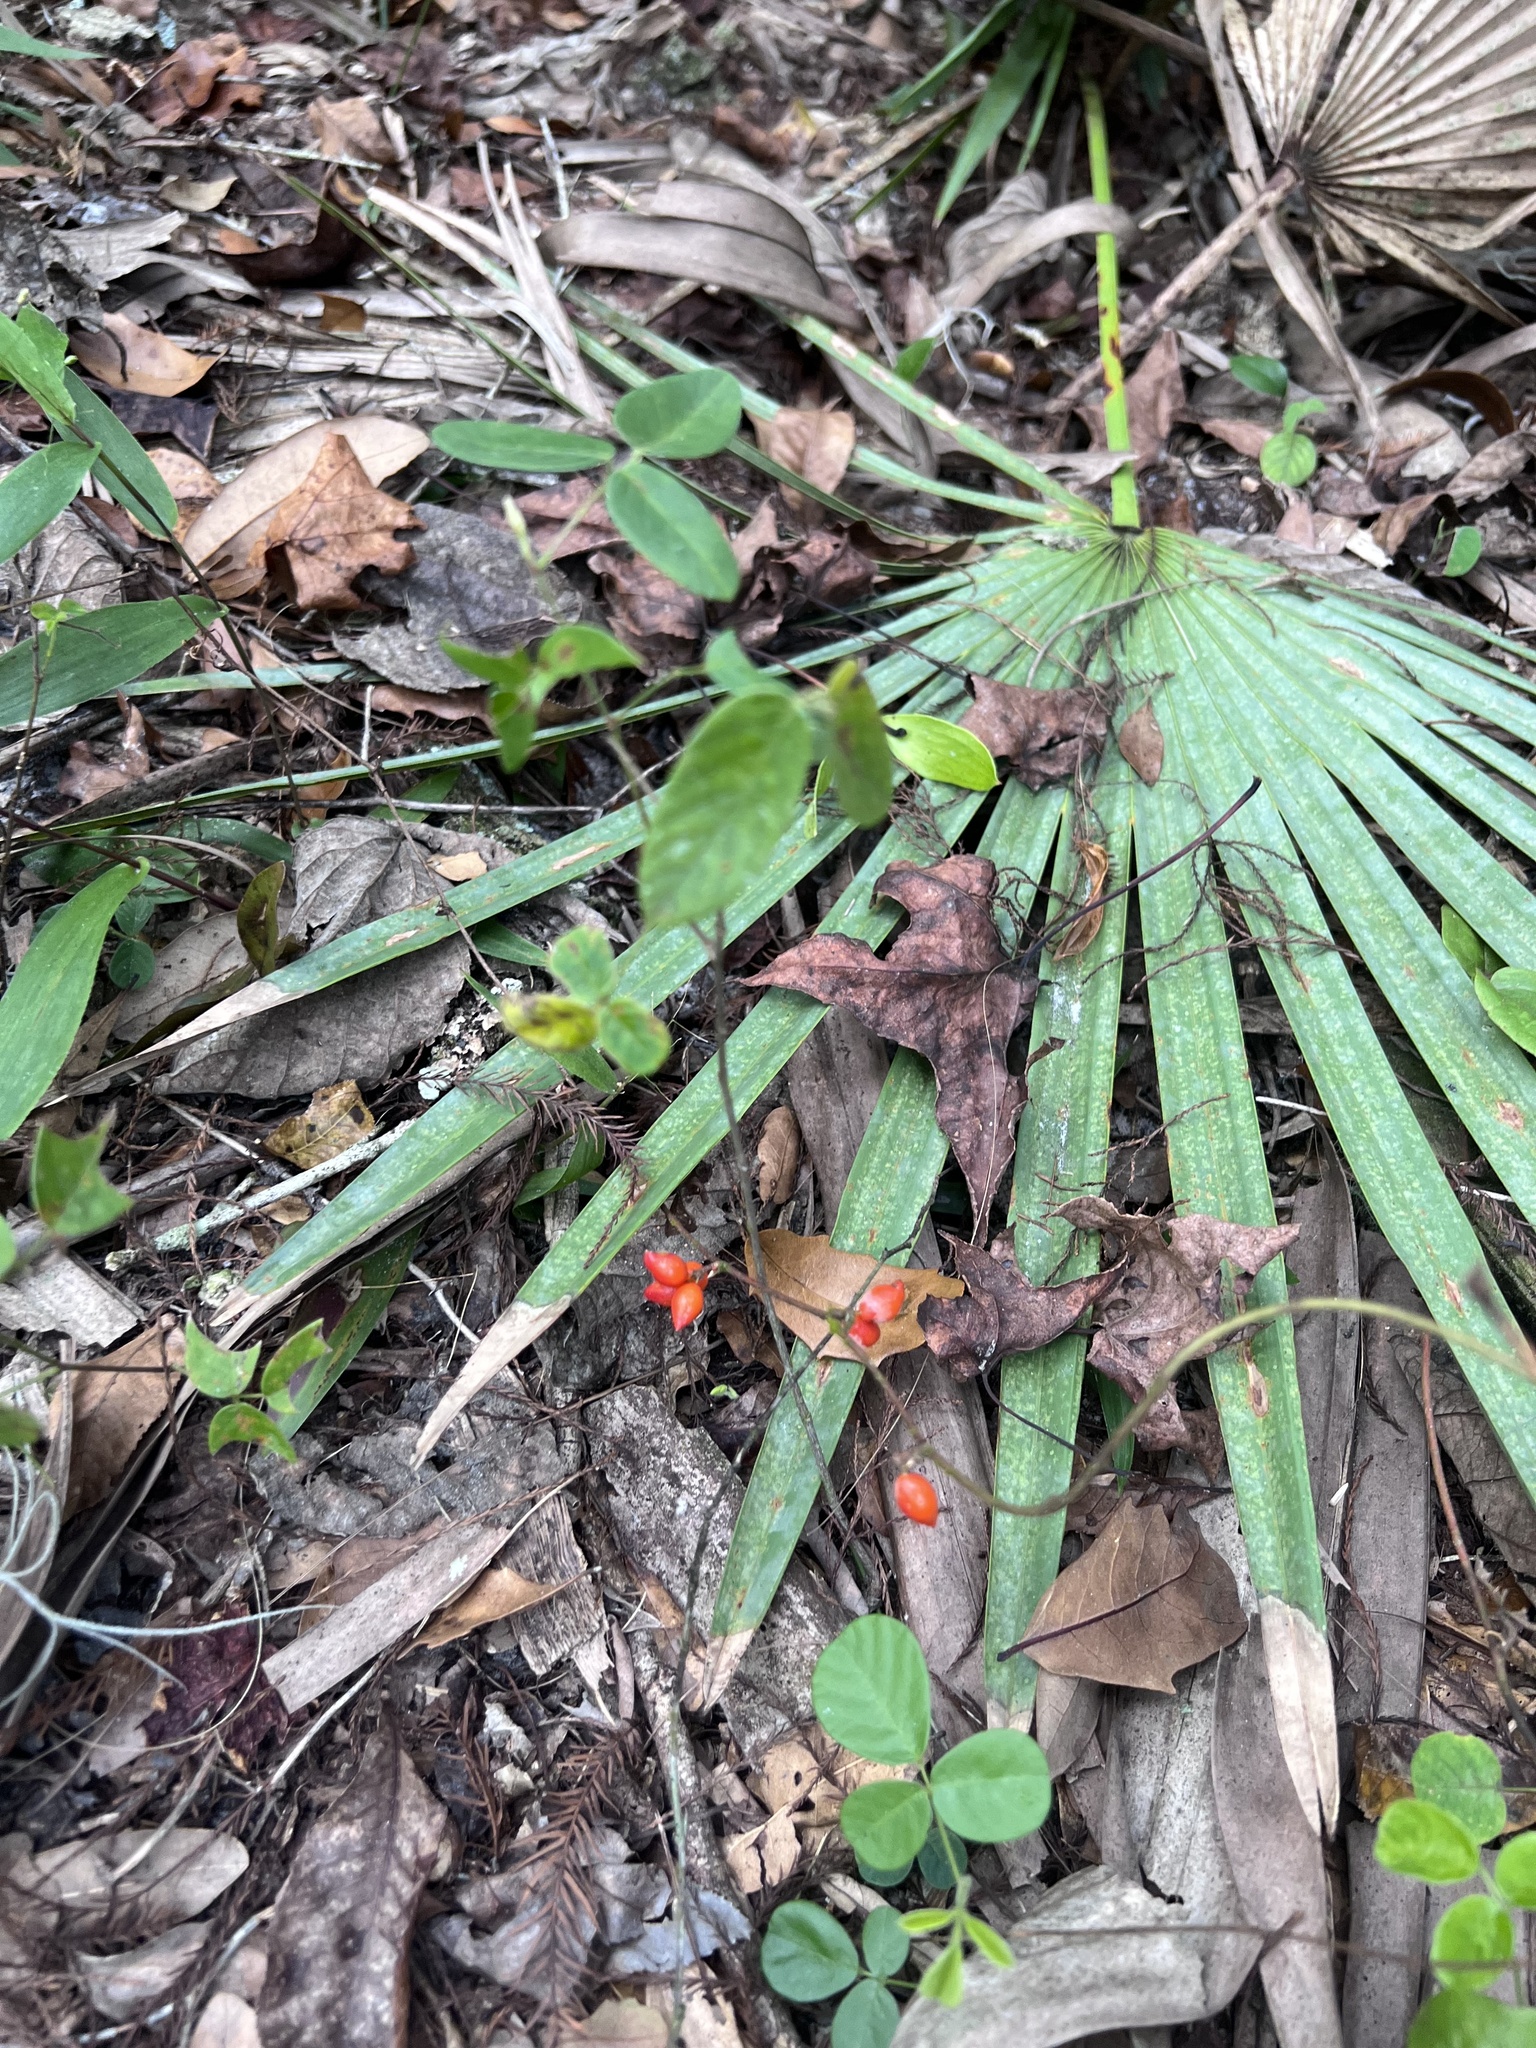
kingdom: Plantae
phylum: Tracheophyta
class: Liliopsida
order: Liliales
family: Smilacaceae
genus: Smilax
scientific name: Smilax pumila
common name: Sarsaparilla-vine
